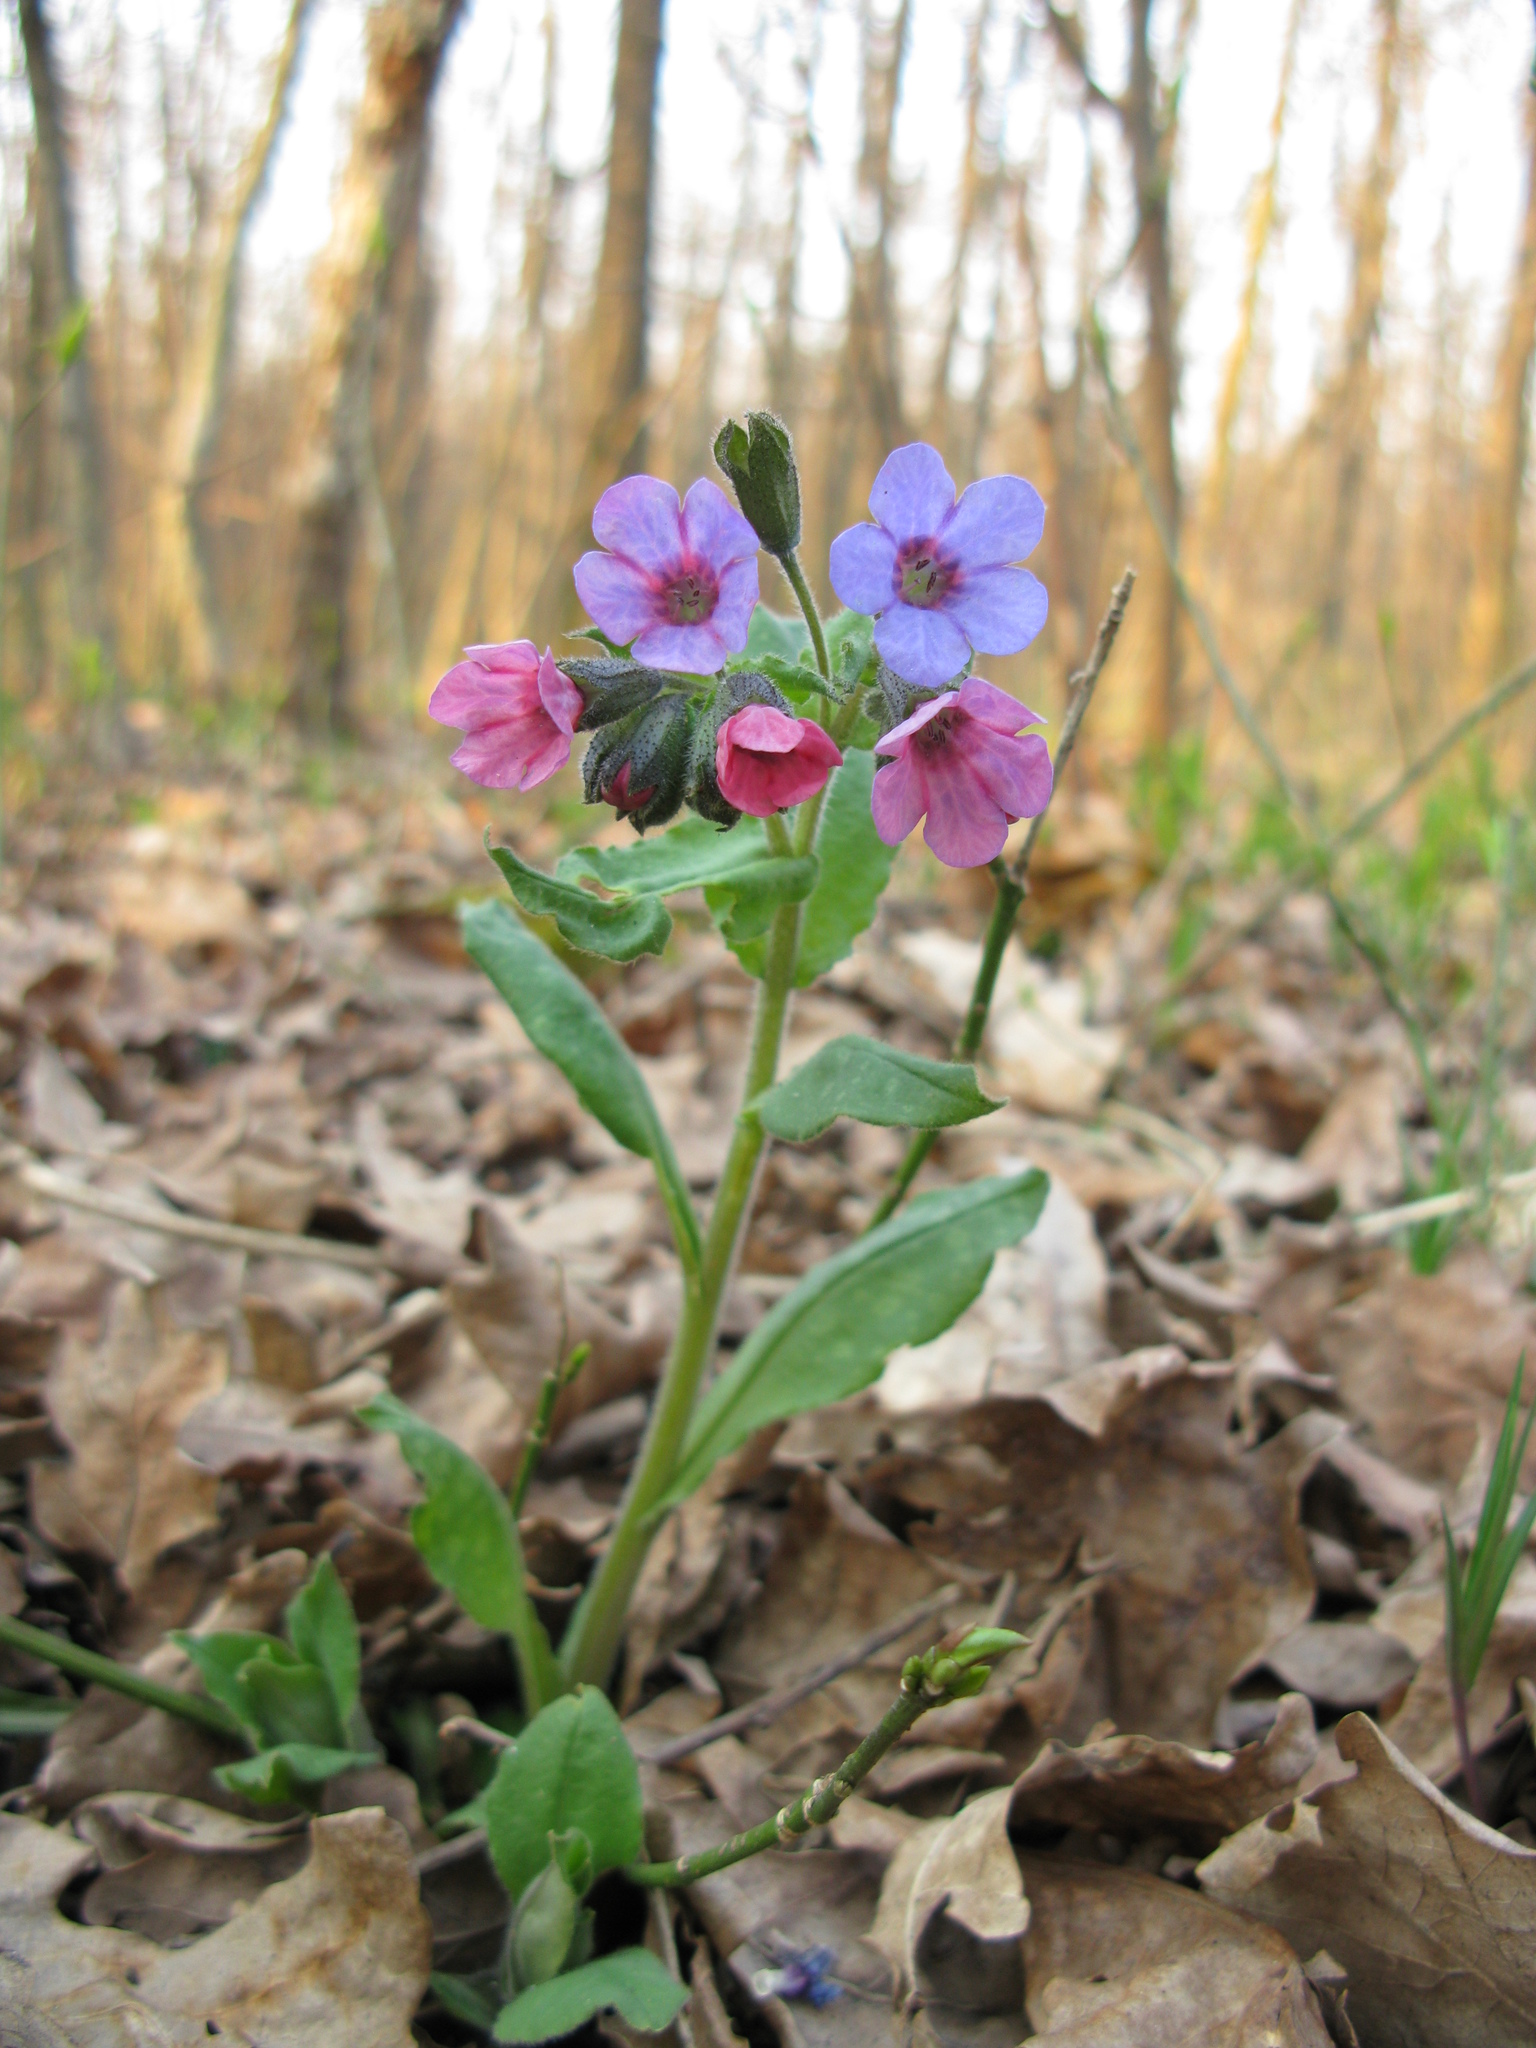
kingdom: Plantae
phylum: Tracheophyta
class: Magnoliopsida
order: Boraginales
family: Boraginaceae
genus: Pulmonaria
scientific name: Pulmonaria obscura
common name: Suffolk lungwort
